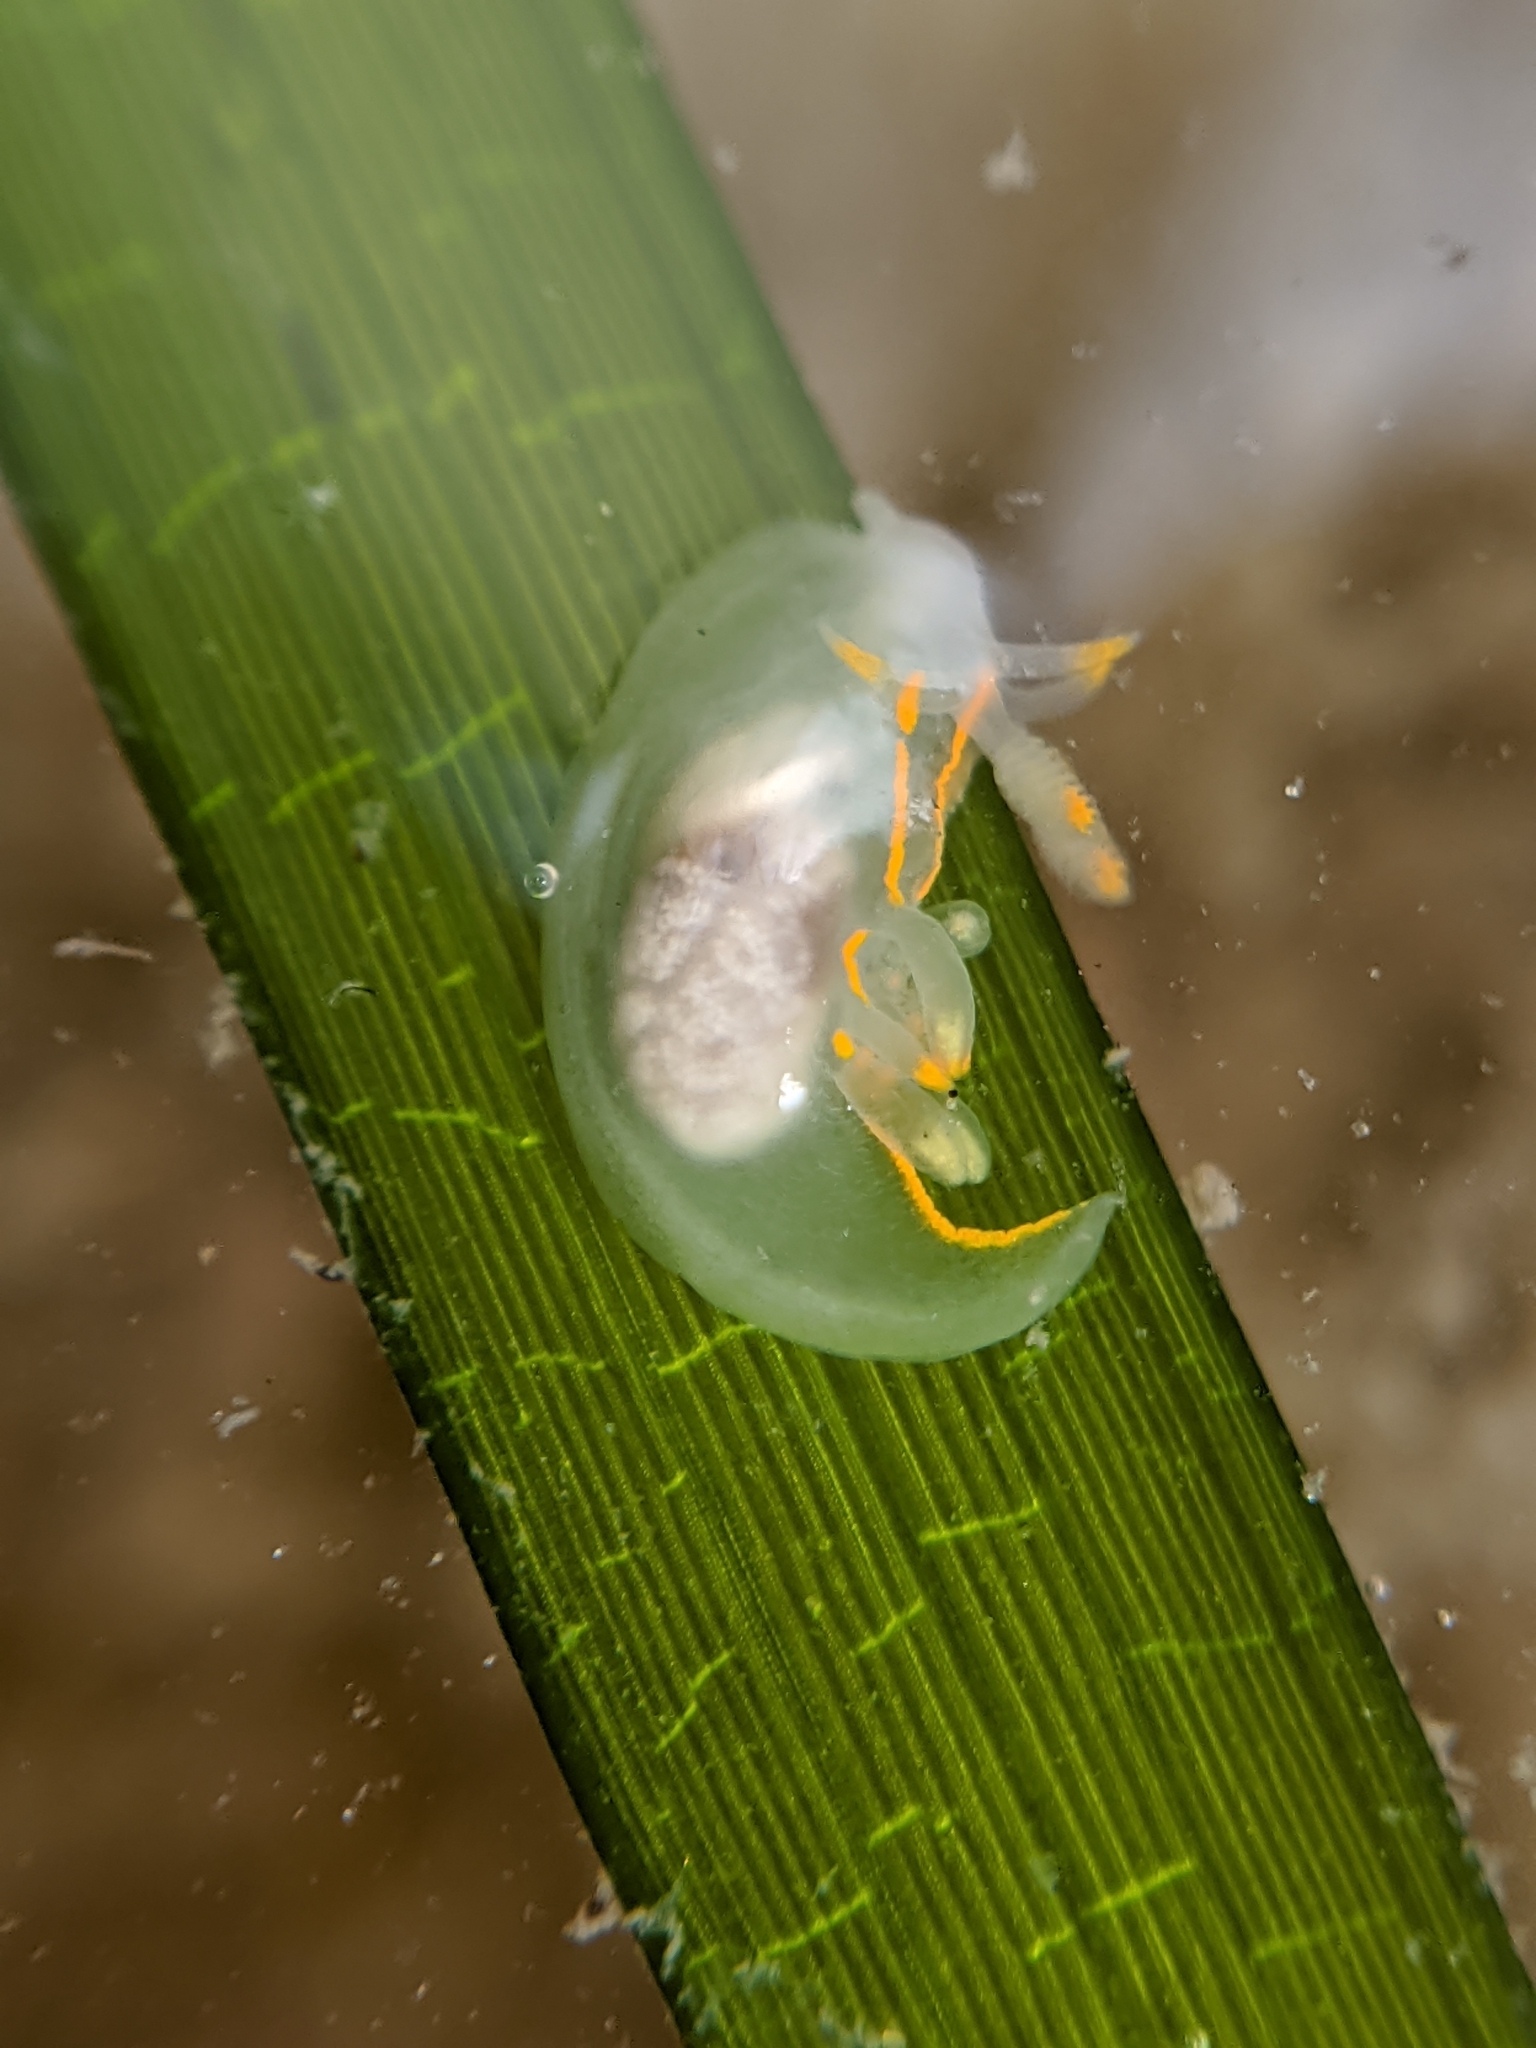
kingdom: Animalia
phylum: Mollusca
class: Gastropoda
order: Nudibranchia
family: Goniodorididae
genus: Ancula
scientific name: Ancula pacifica
